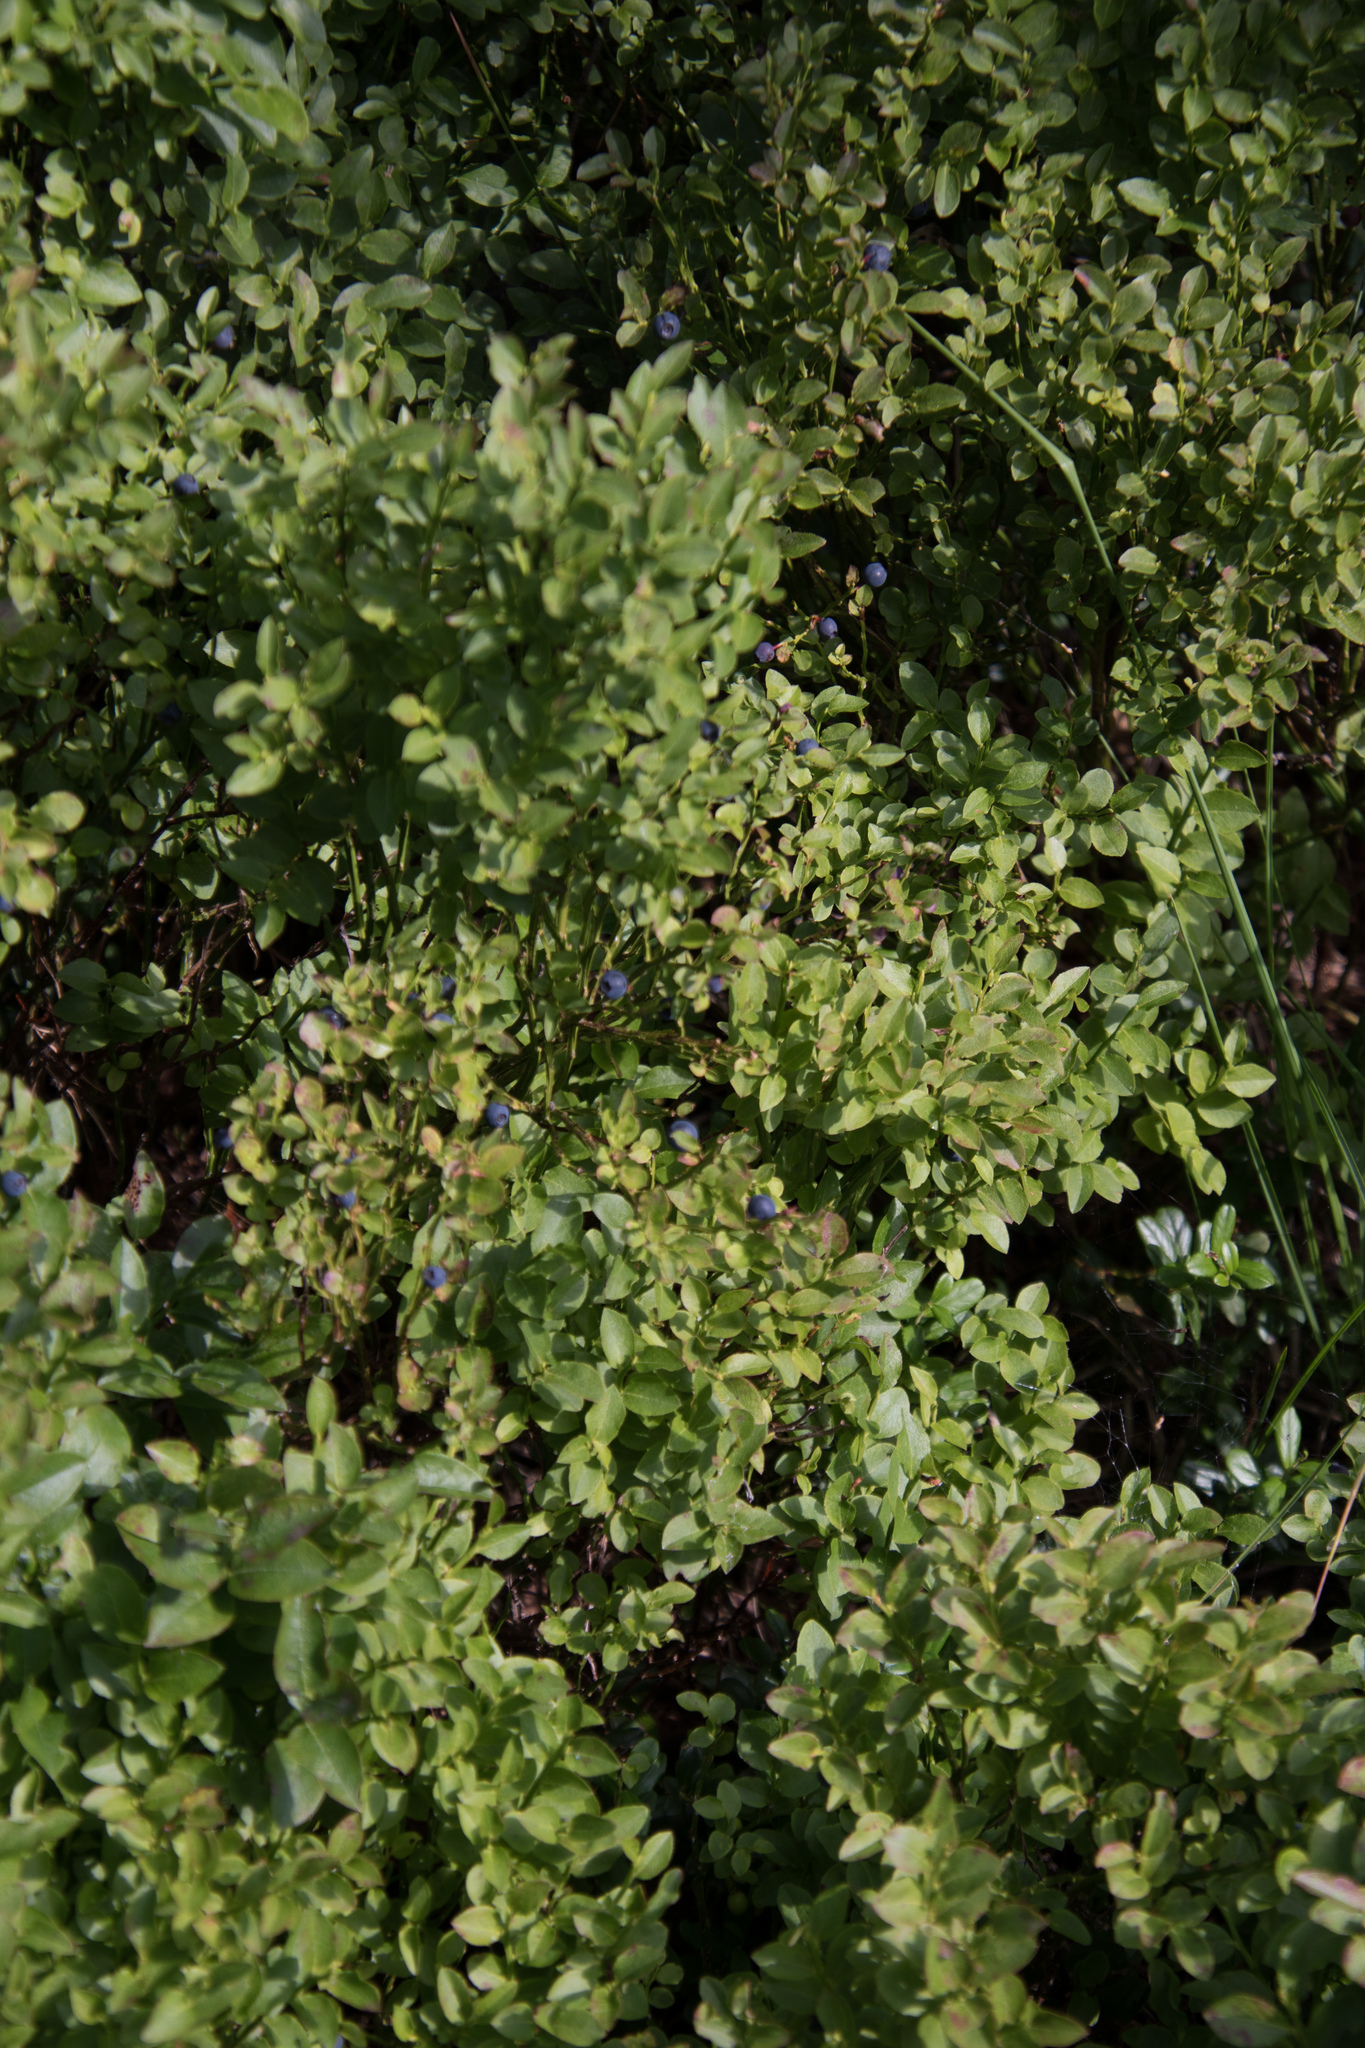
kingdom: Plantae
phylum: Tracheophyta
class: Magnoliopsida
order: Ericales
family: Ericaceae
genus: Vaccinium
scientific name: Vaccinium myrtillus
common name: Bilberry
